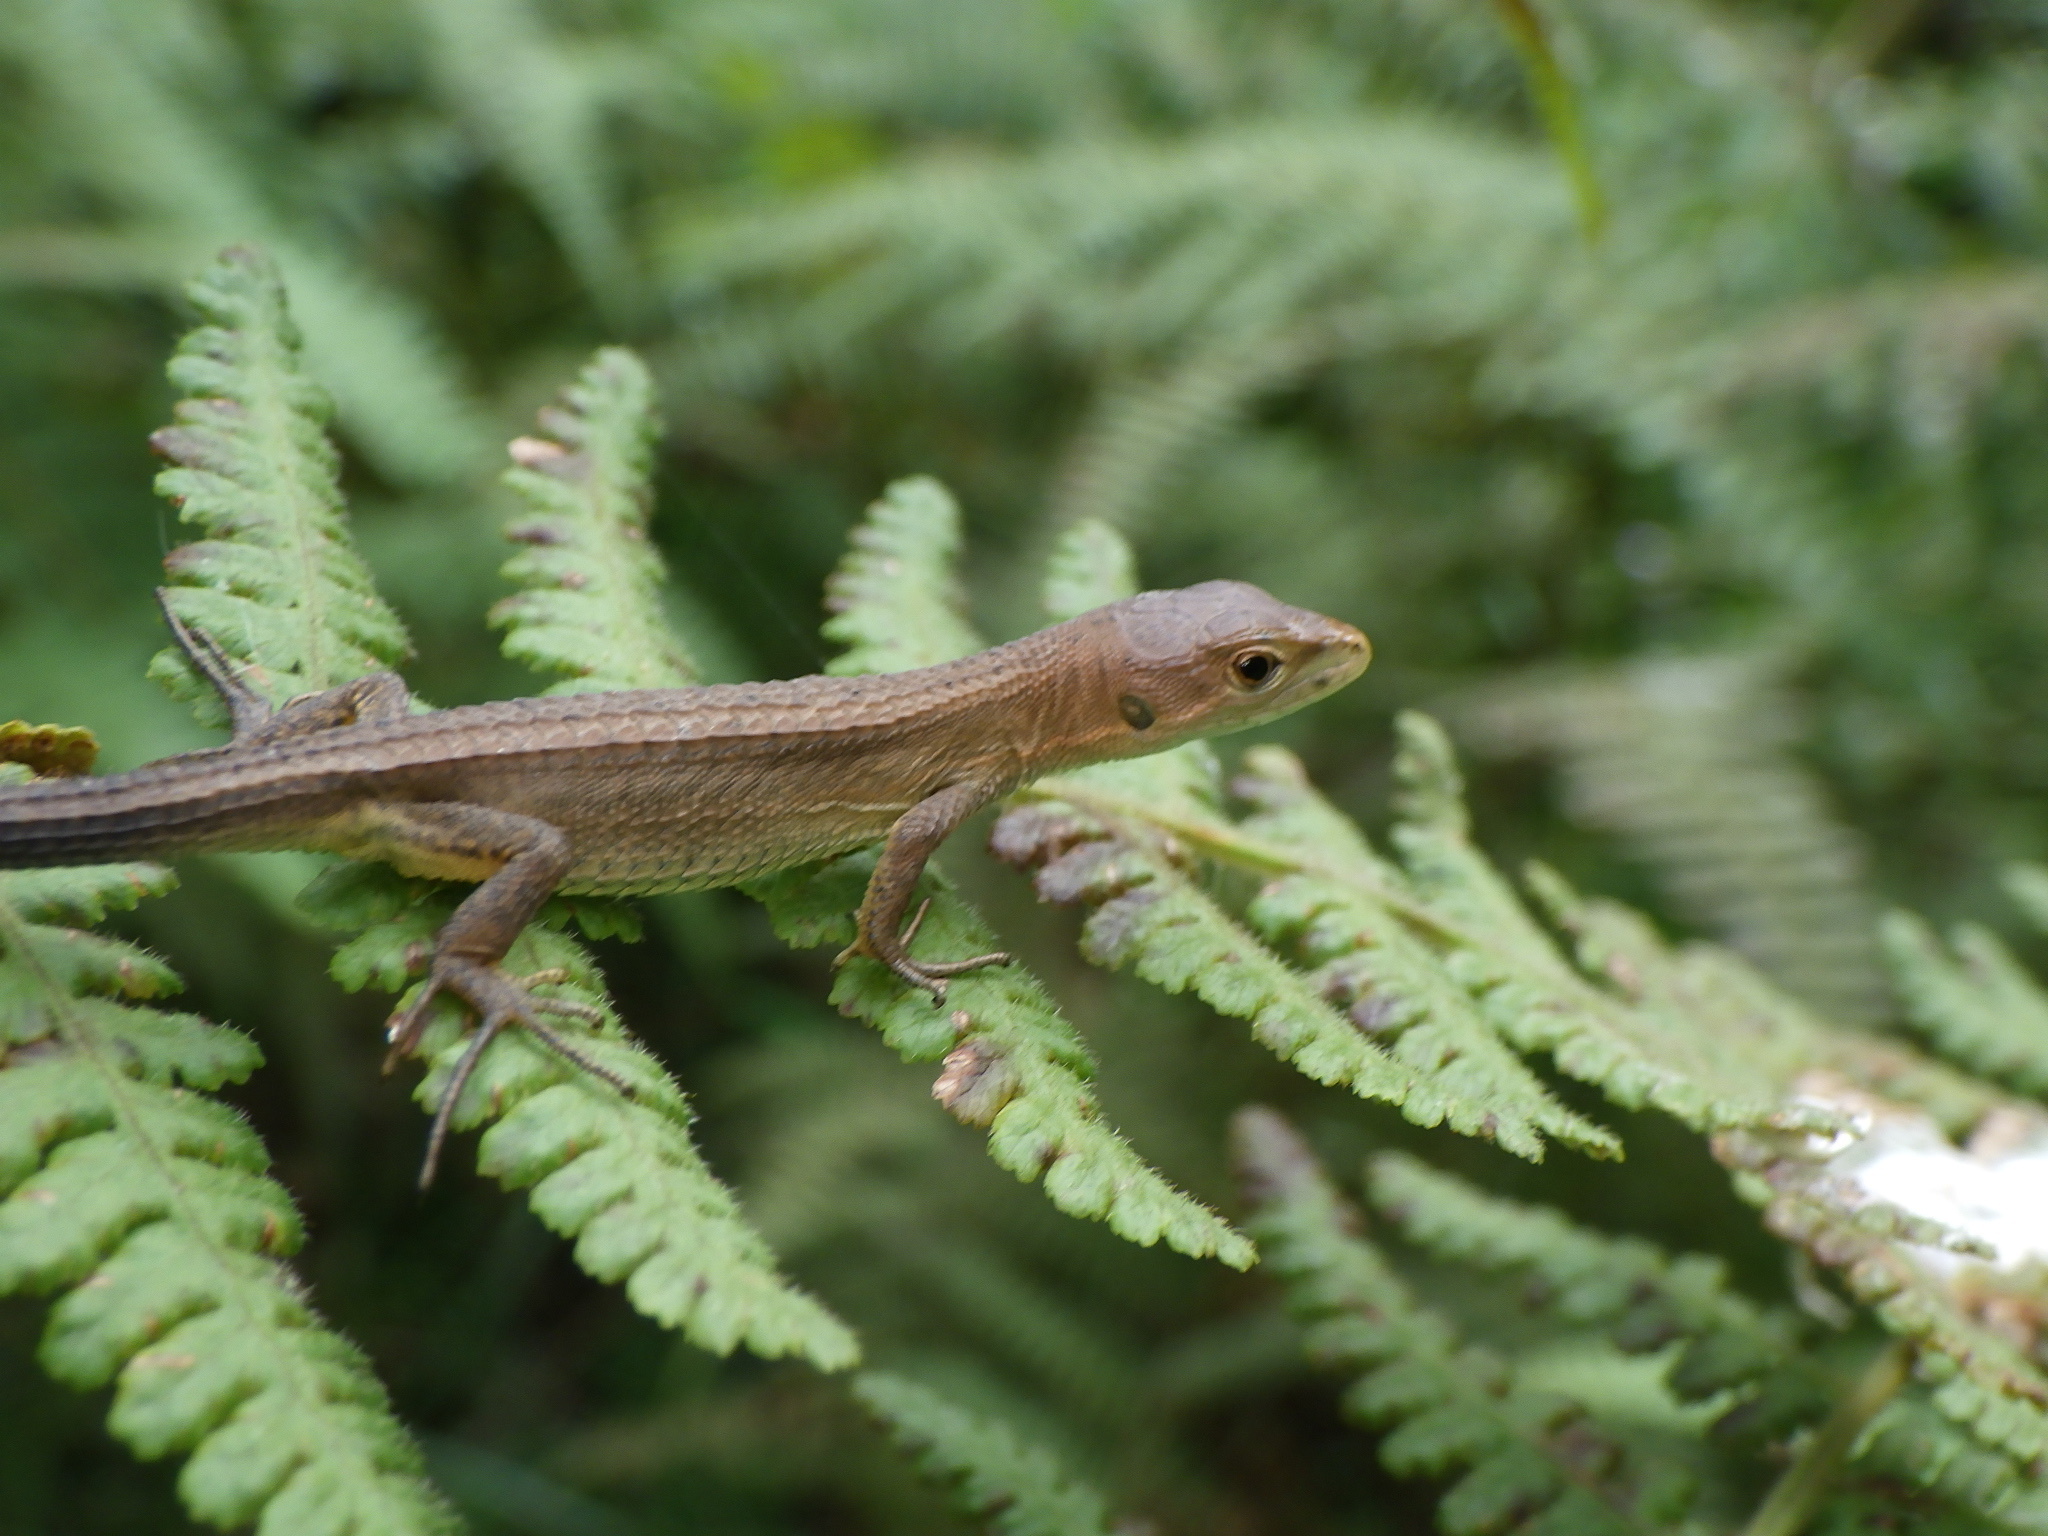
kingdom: Animalia
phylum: Chordata
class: Squamata
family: Lacertidae
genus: Takydromus
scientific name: Takydromus tachydromoides
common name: Japanese grass lizard
